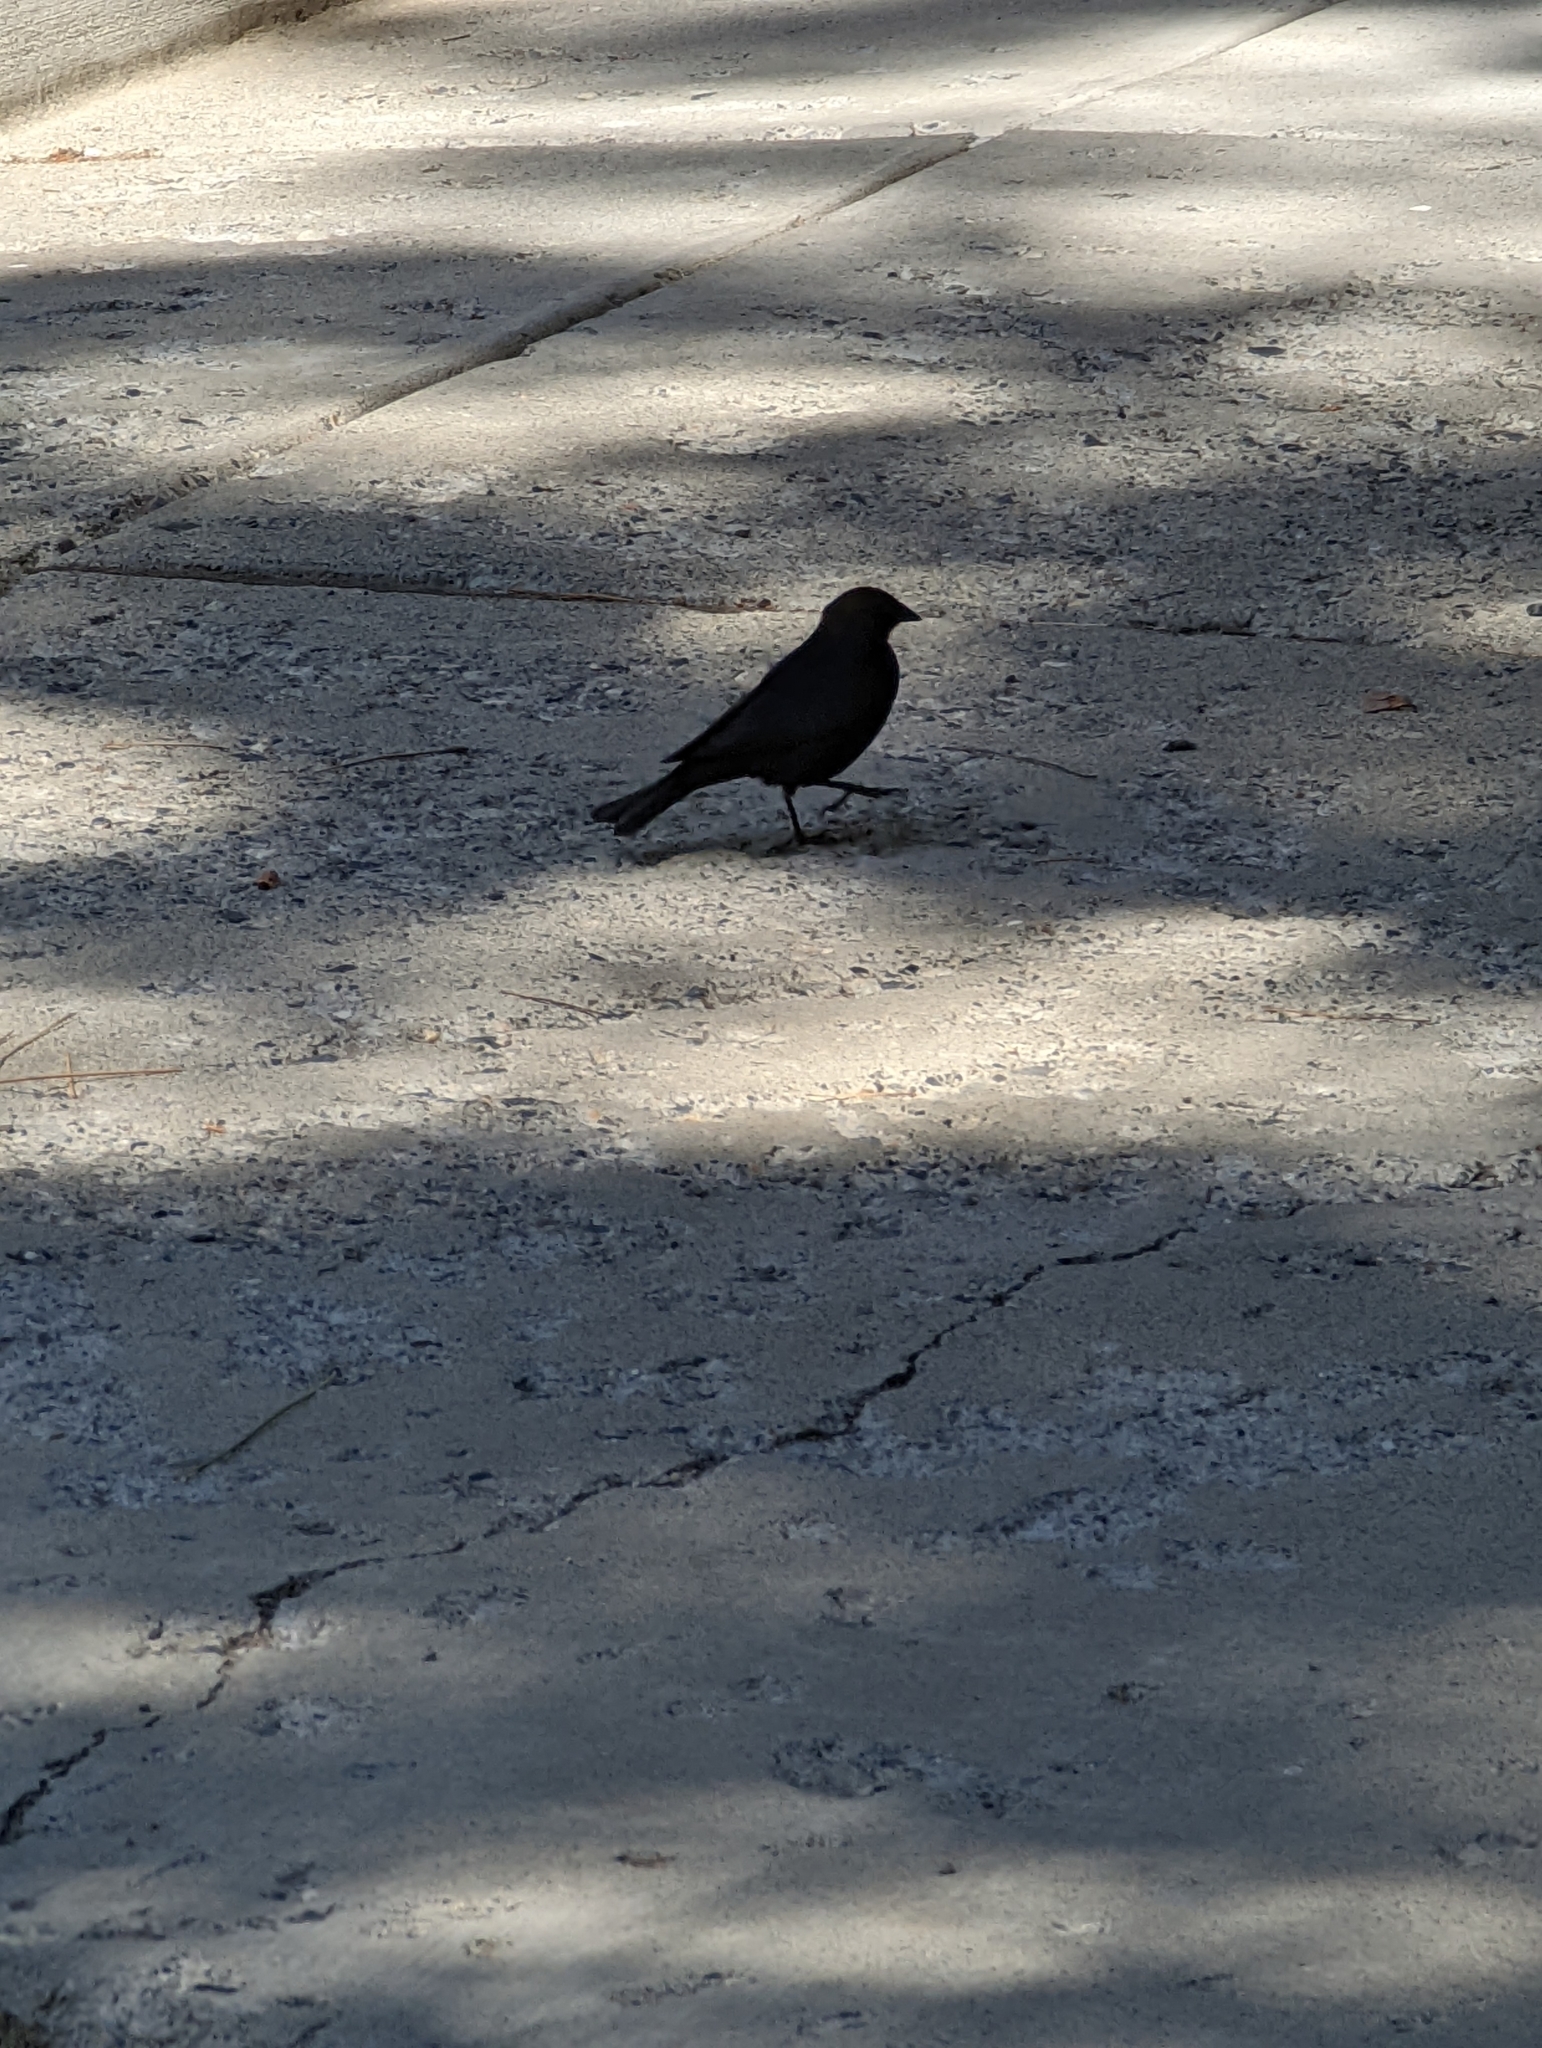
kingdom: Animalia
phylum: Chordata
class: Aves
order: Passeriformes
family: Icteridae
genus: Molothrus
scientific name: Molothrus ater
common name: Brown-headed cowbird
